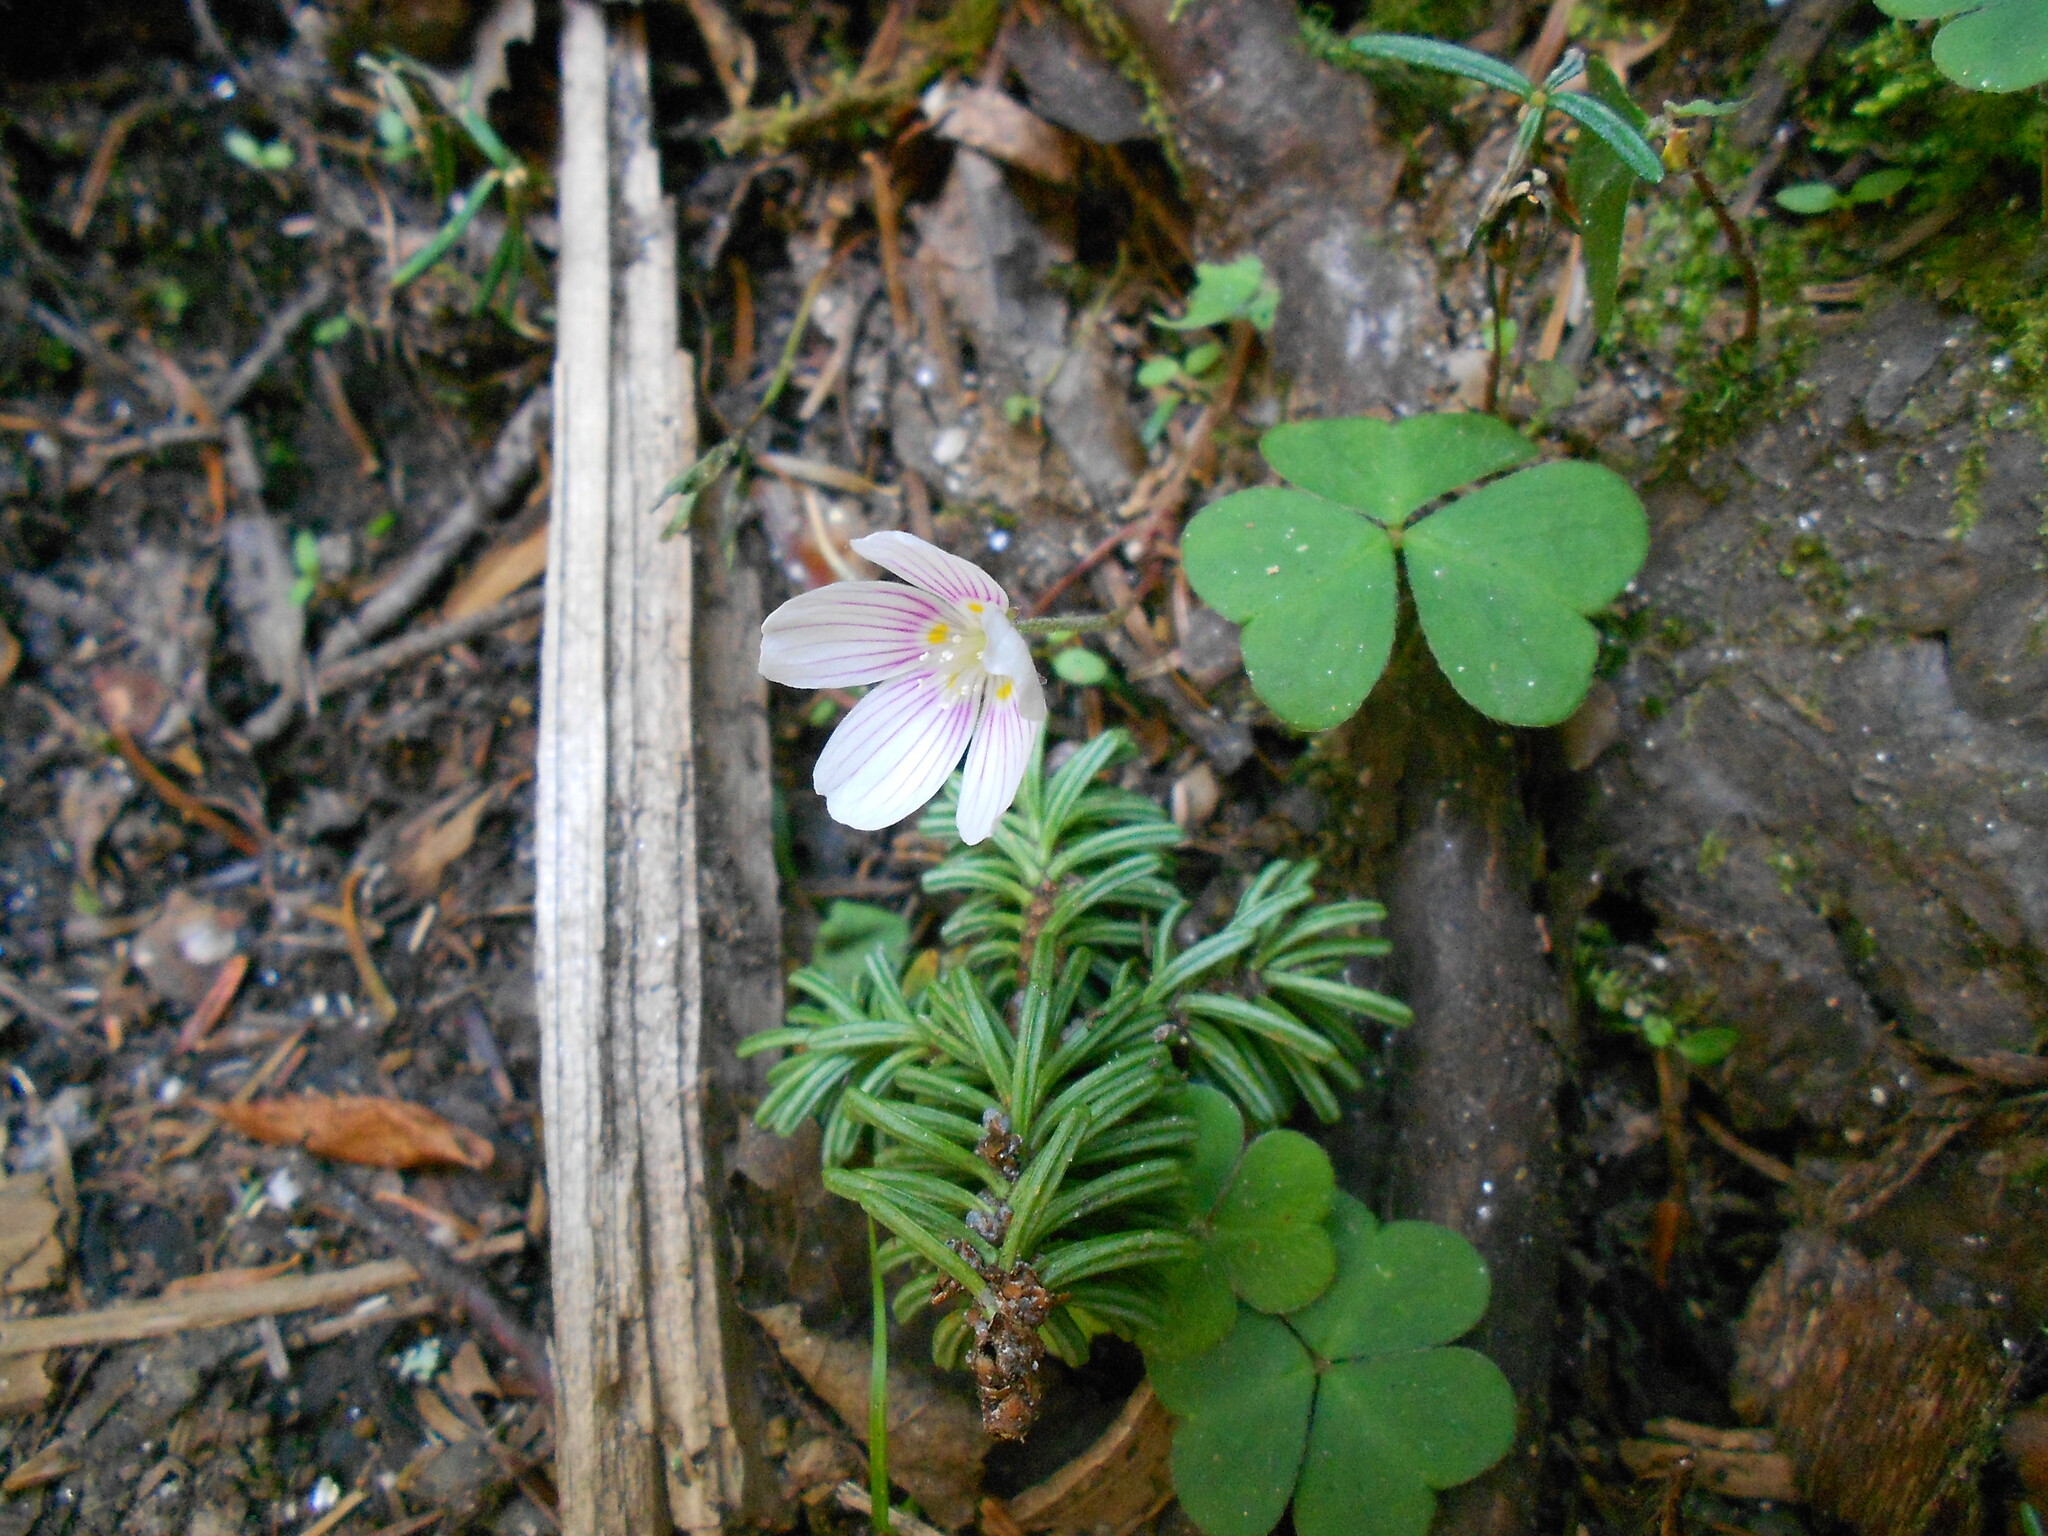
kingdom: Plantae
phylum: Tracheophyta
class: Magnoliopsida
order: Oxalidales
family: Oxalidaceae
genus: Oxalis
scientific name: Oxalis montana
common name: American wood-sorrel
